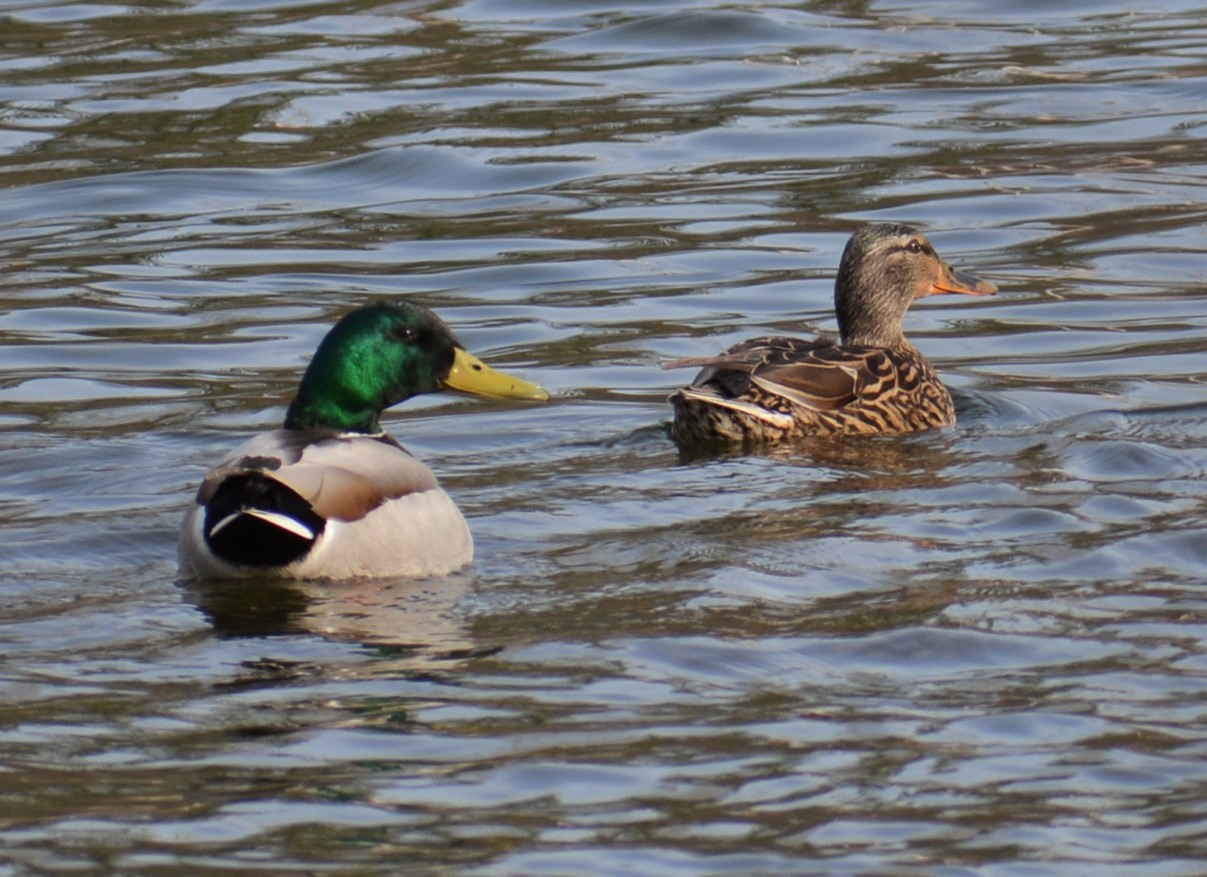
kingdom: Animalia
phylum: Chordata
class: Aves
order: Anseriformes
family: Anatidae
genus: Anas
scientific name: Anas platyrhynchos
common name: Mallard
